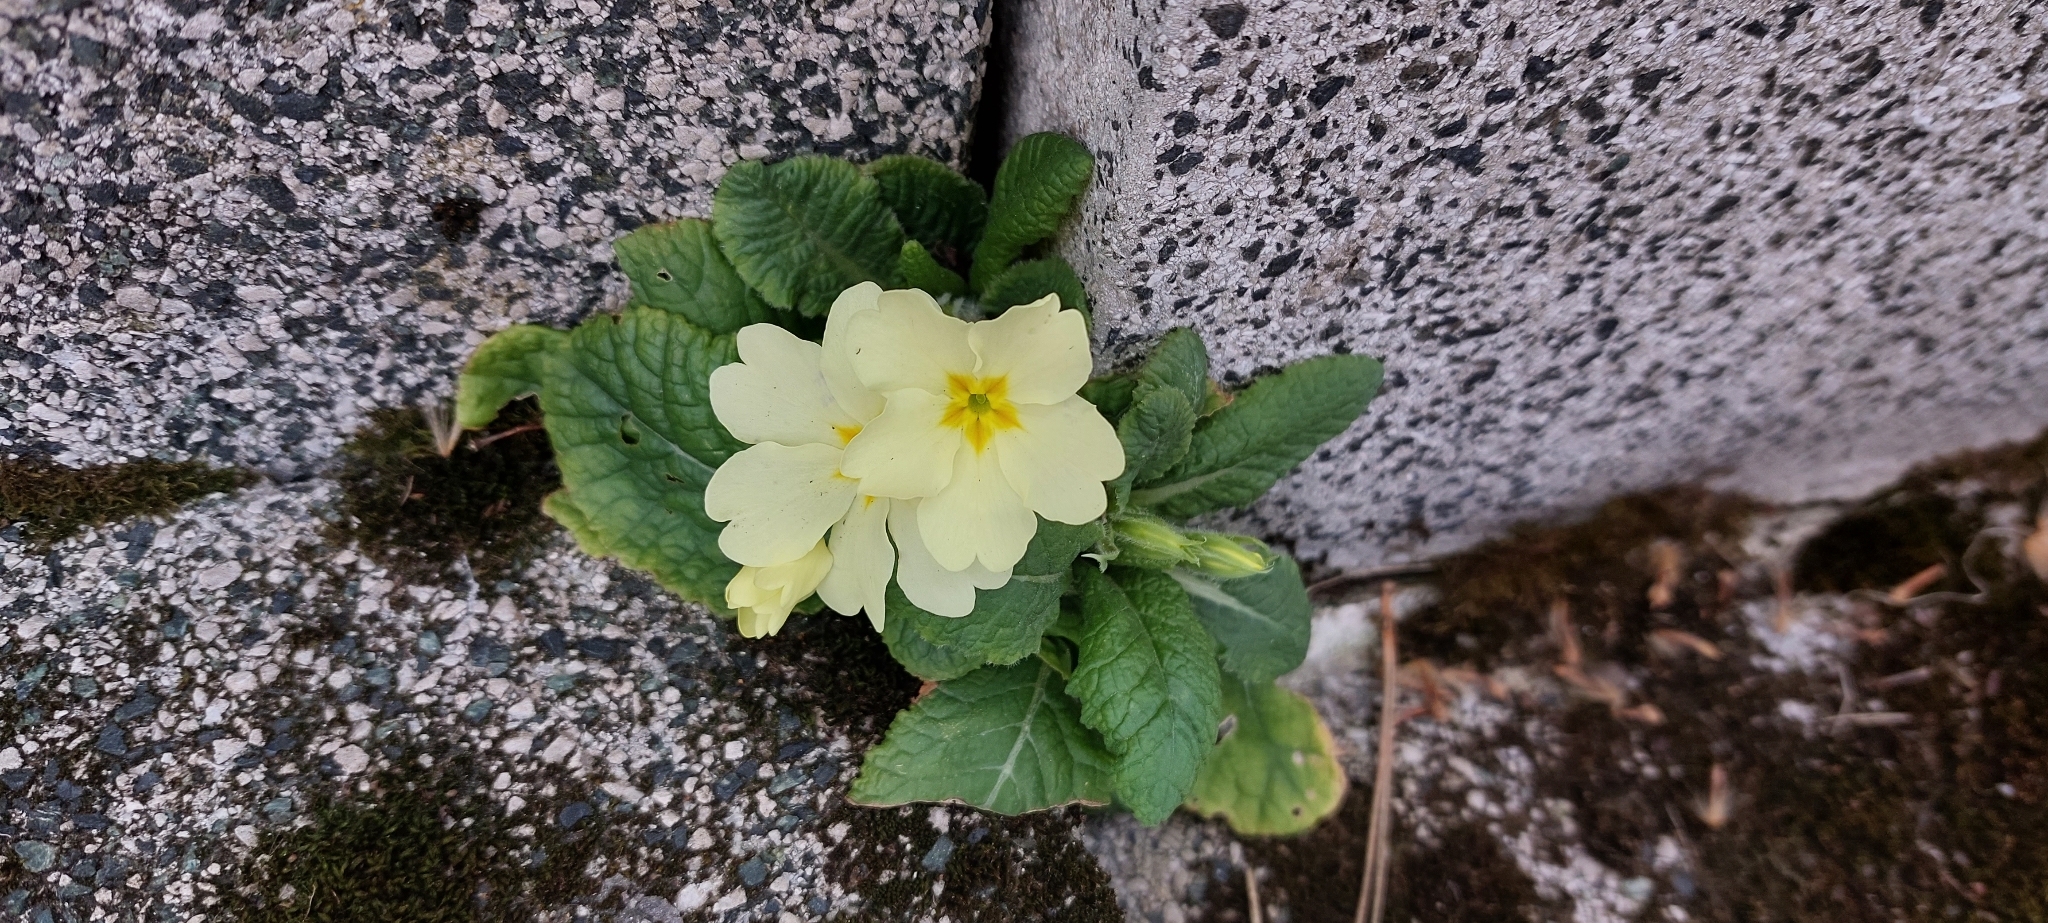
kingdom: Plantae
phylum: Tracheophyta
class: Magnoliopsida
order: Ericales
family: Primulaceae
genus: Primula
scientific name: Primula vulgaris
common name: Primrose
